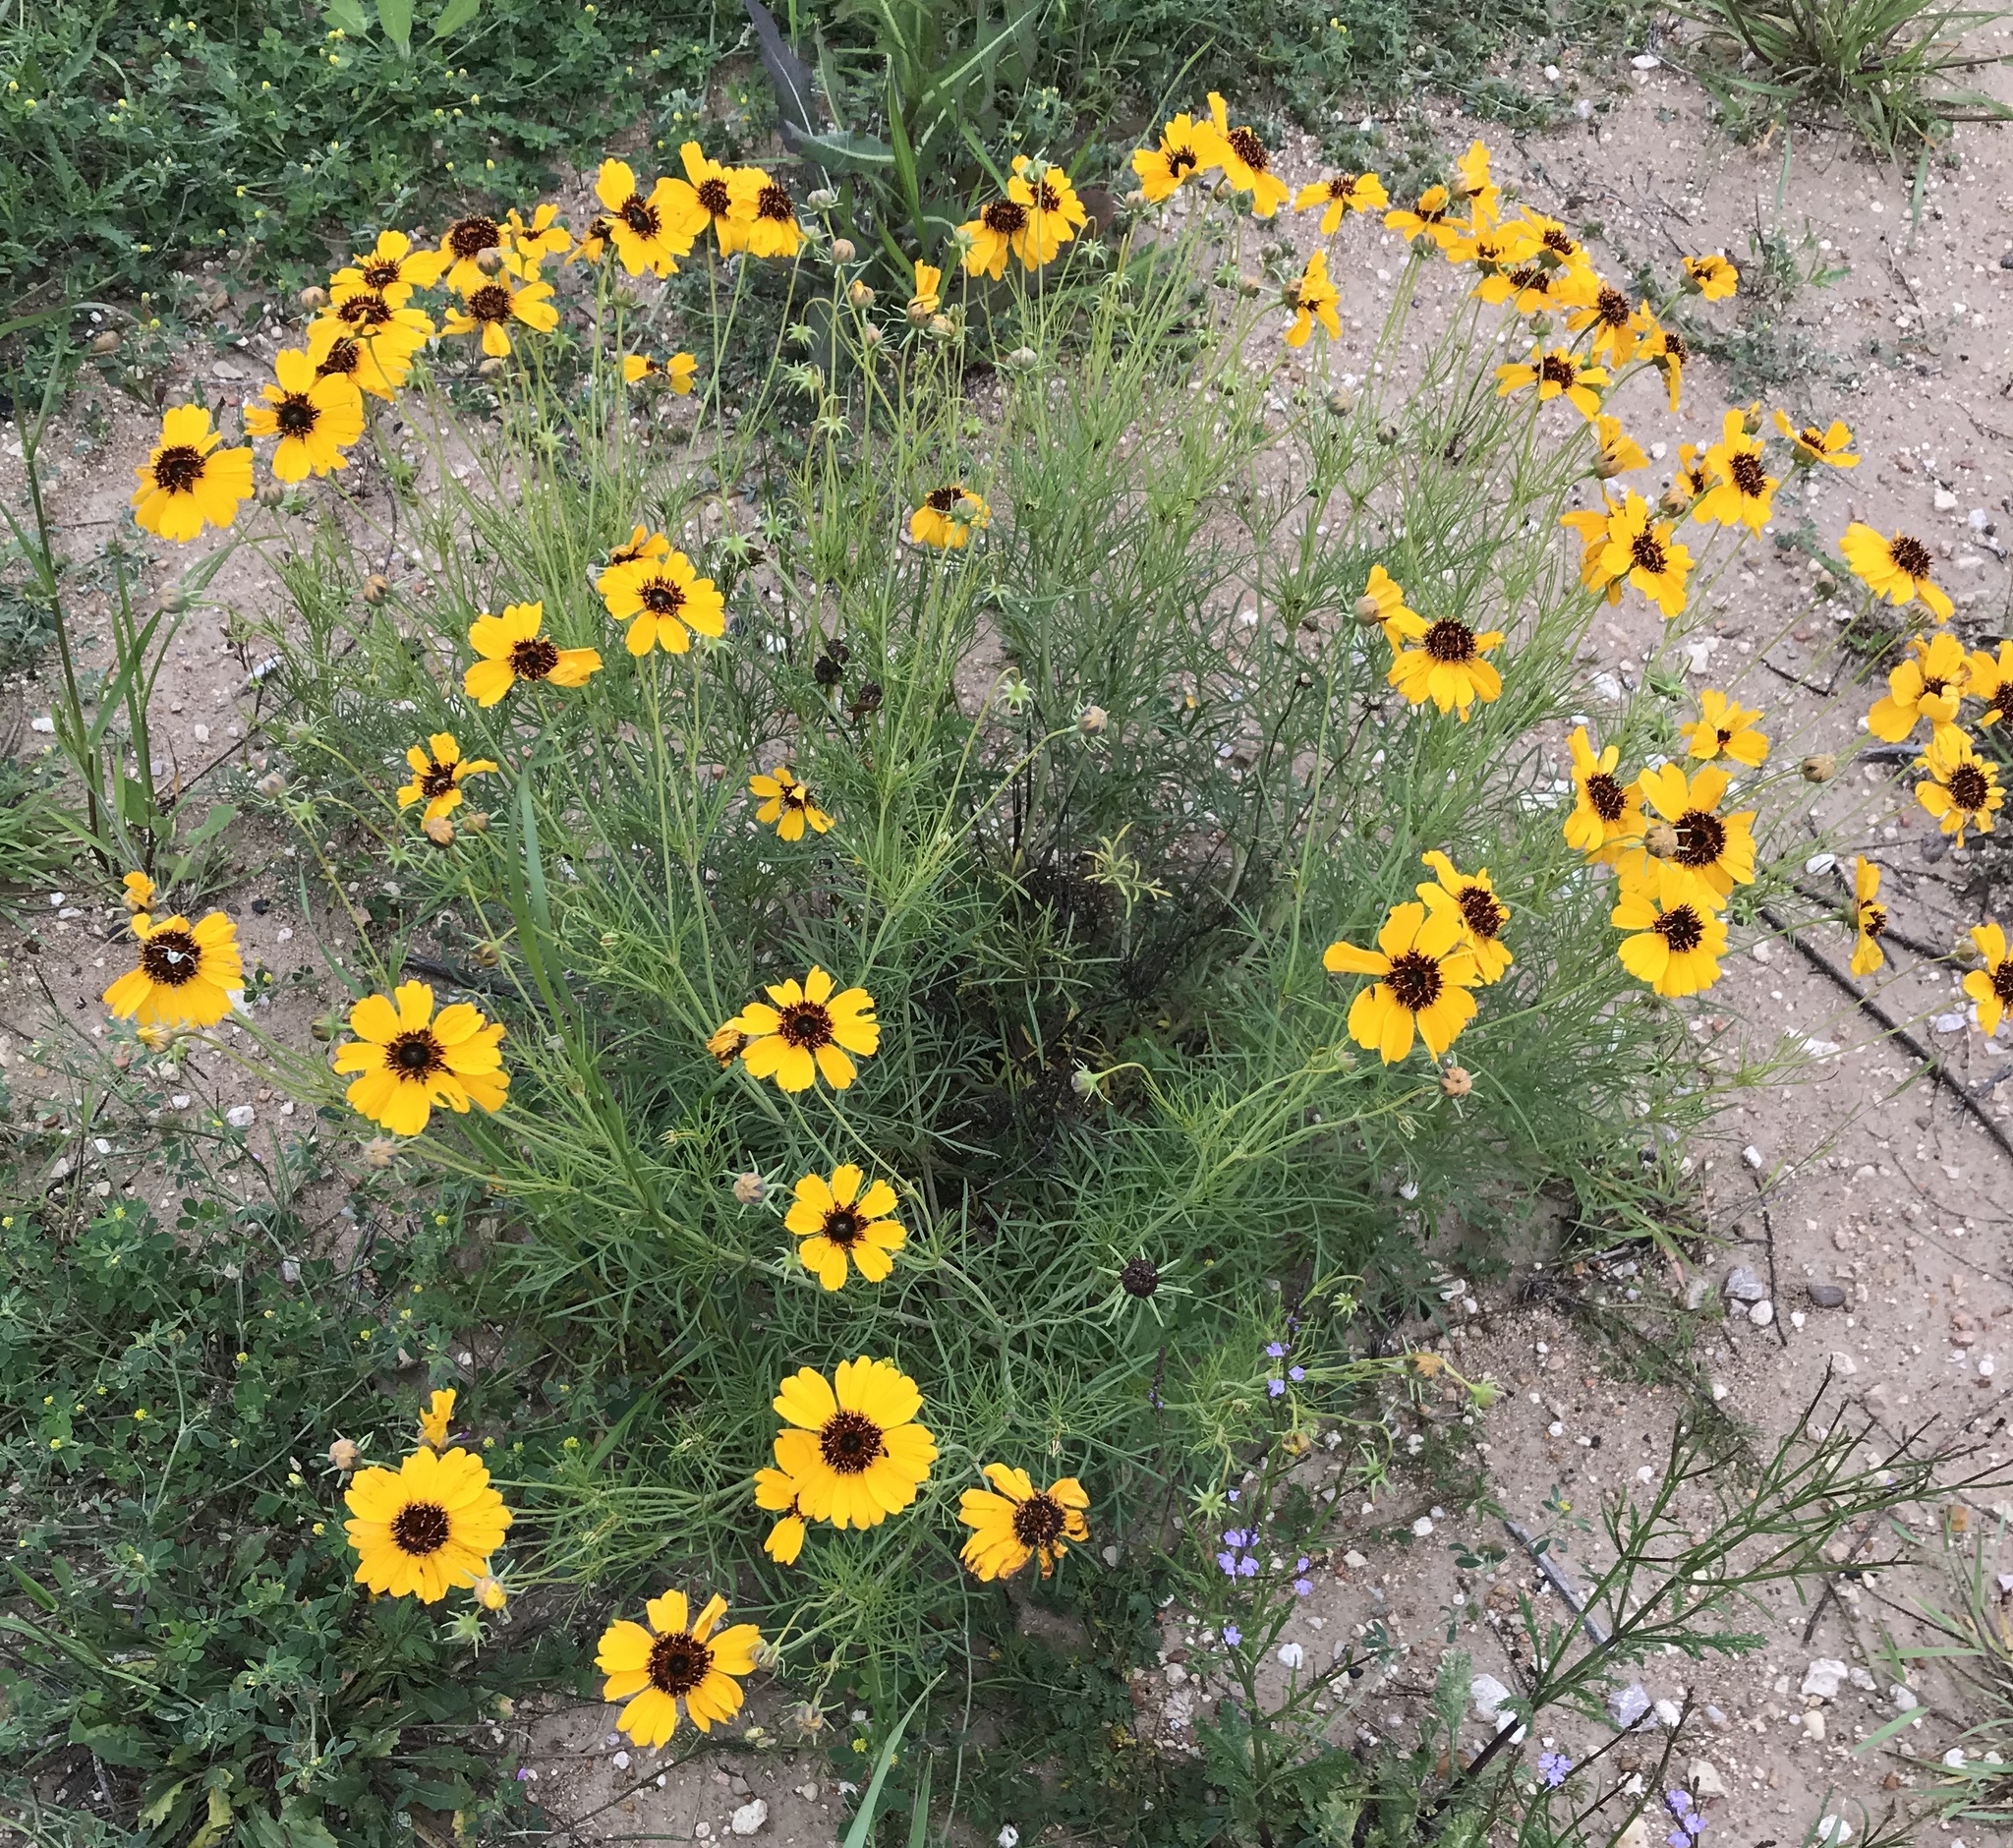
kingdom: Plantae
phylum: Tracheophyta
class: Magnoliopsida
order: Asterales
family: Asteraceae
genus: Thelesperma
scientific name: Thelesperma filifolium
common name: Stiff greenthread
